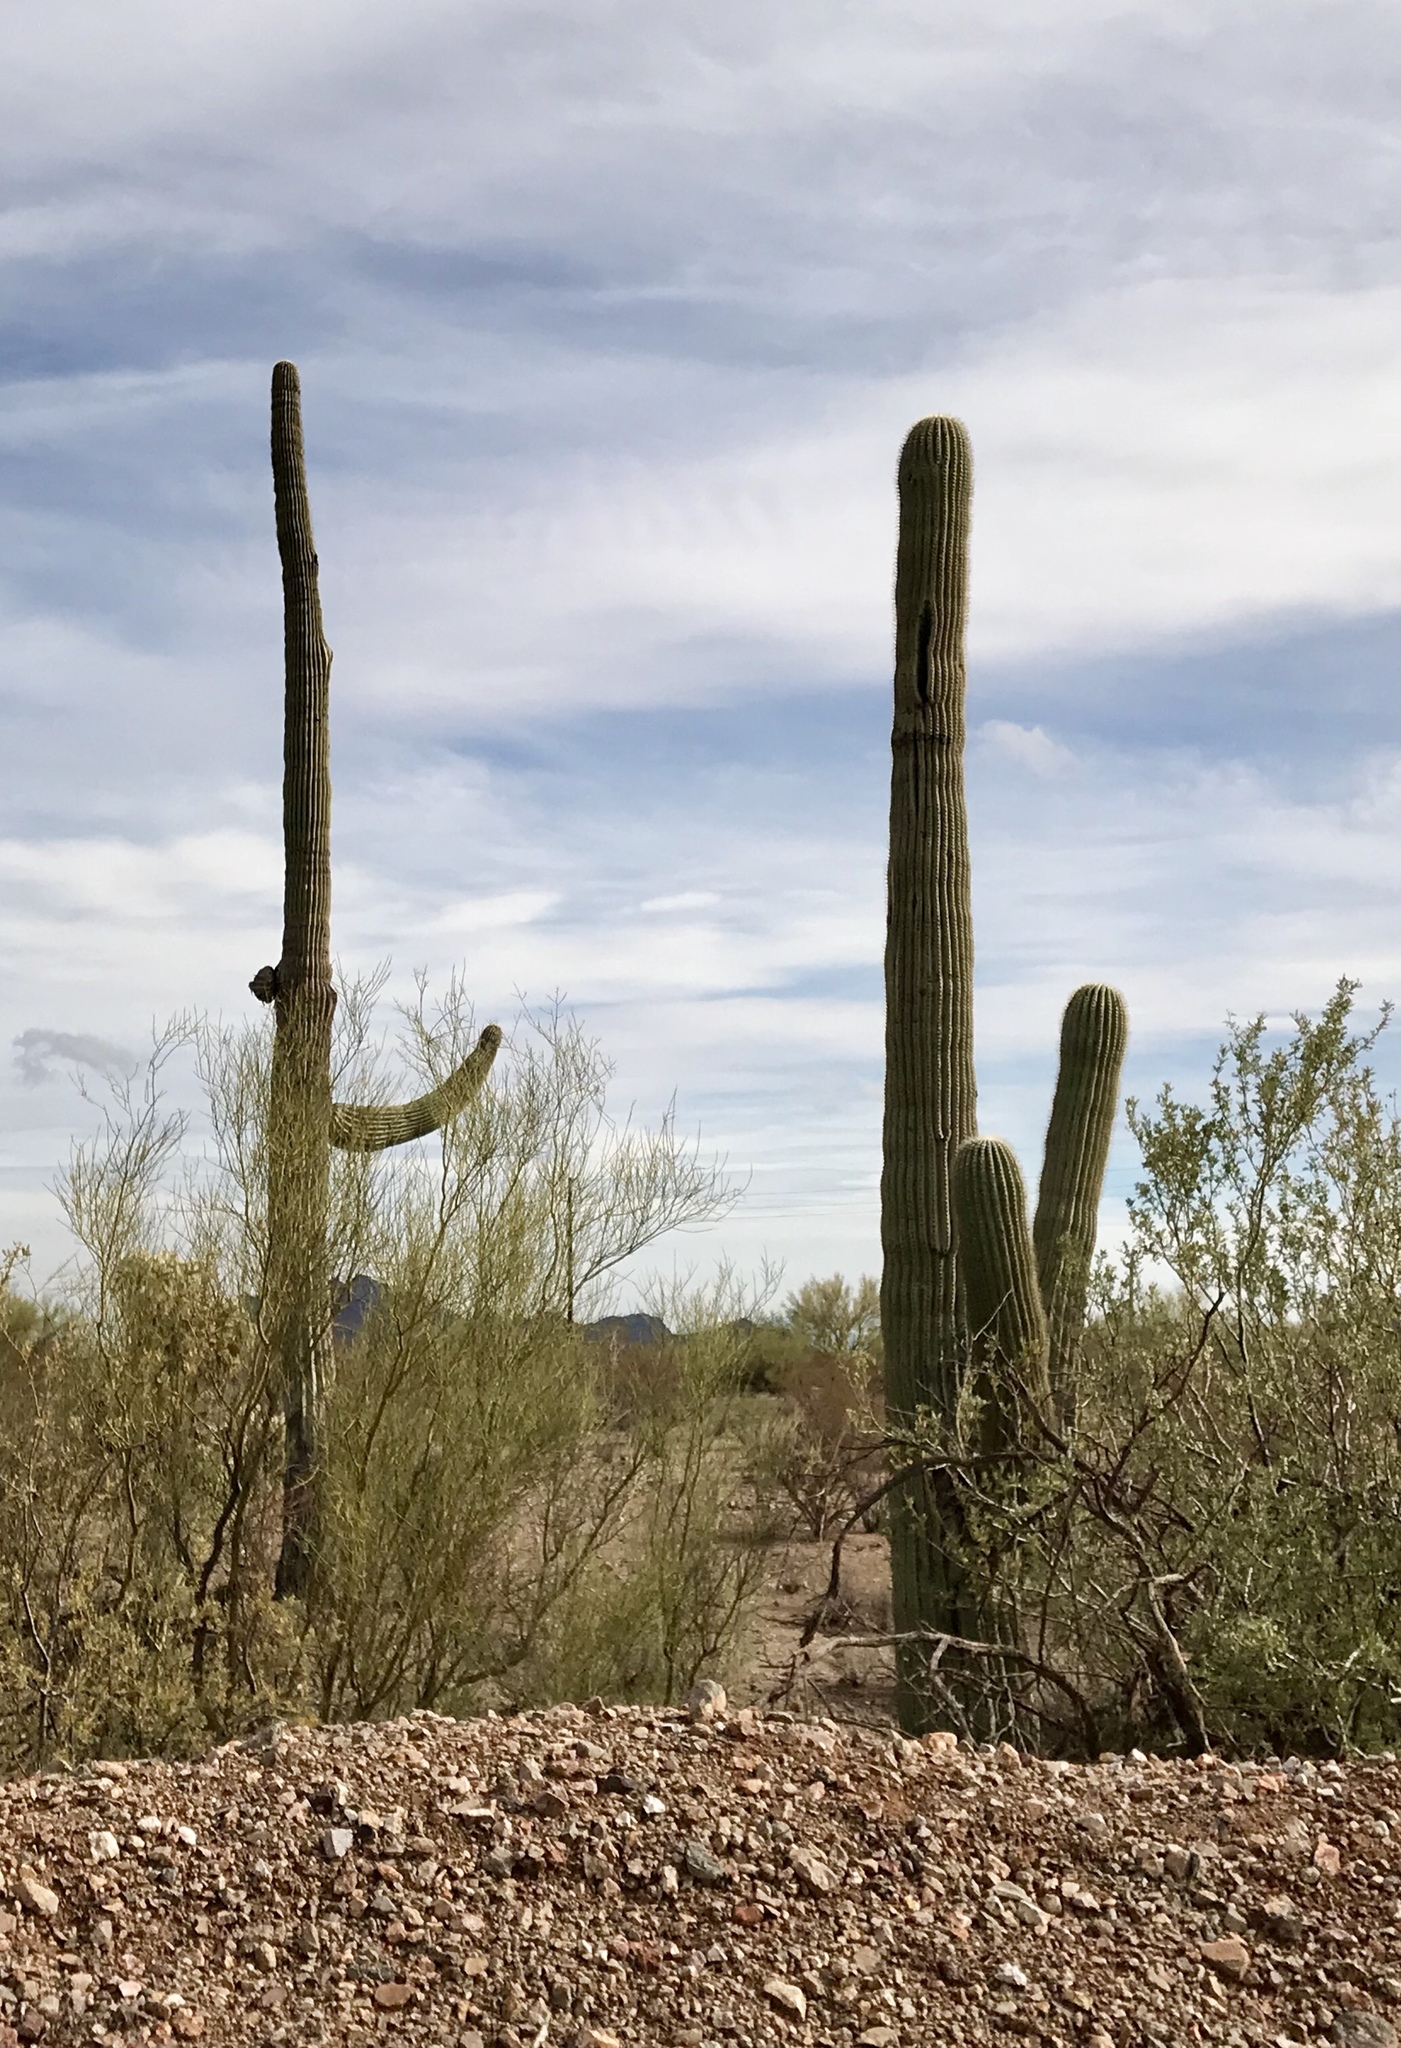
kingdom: Plantae
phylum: Tracheophyta
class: Magnoliopsida
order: Caryophyllales
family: Cactaceae
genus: Carnegiea
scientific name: Carnegiea gigantea
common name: Saguaro
